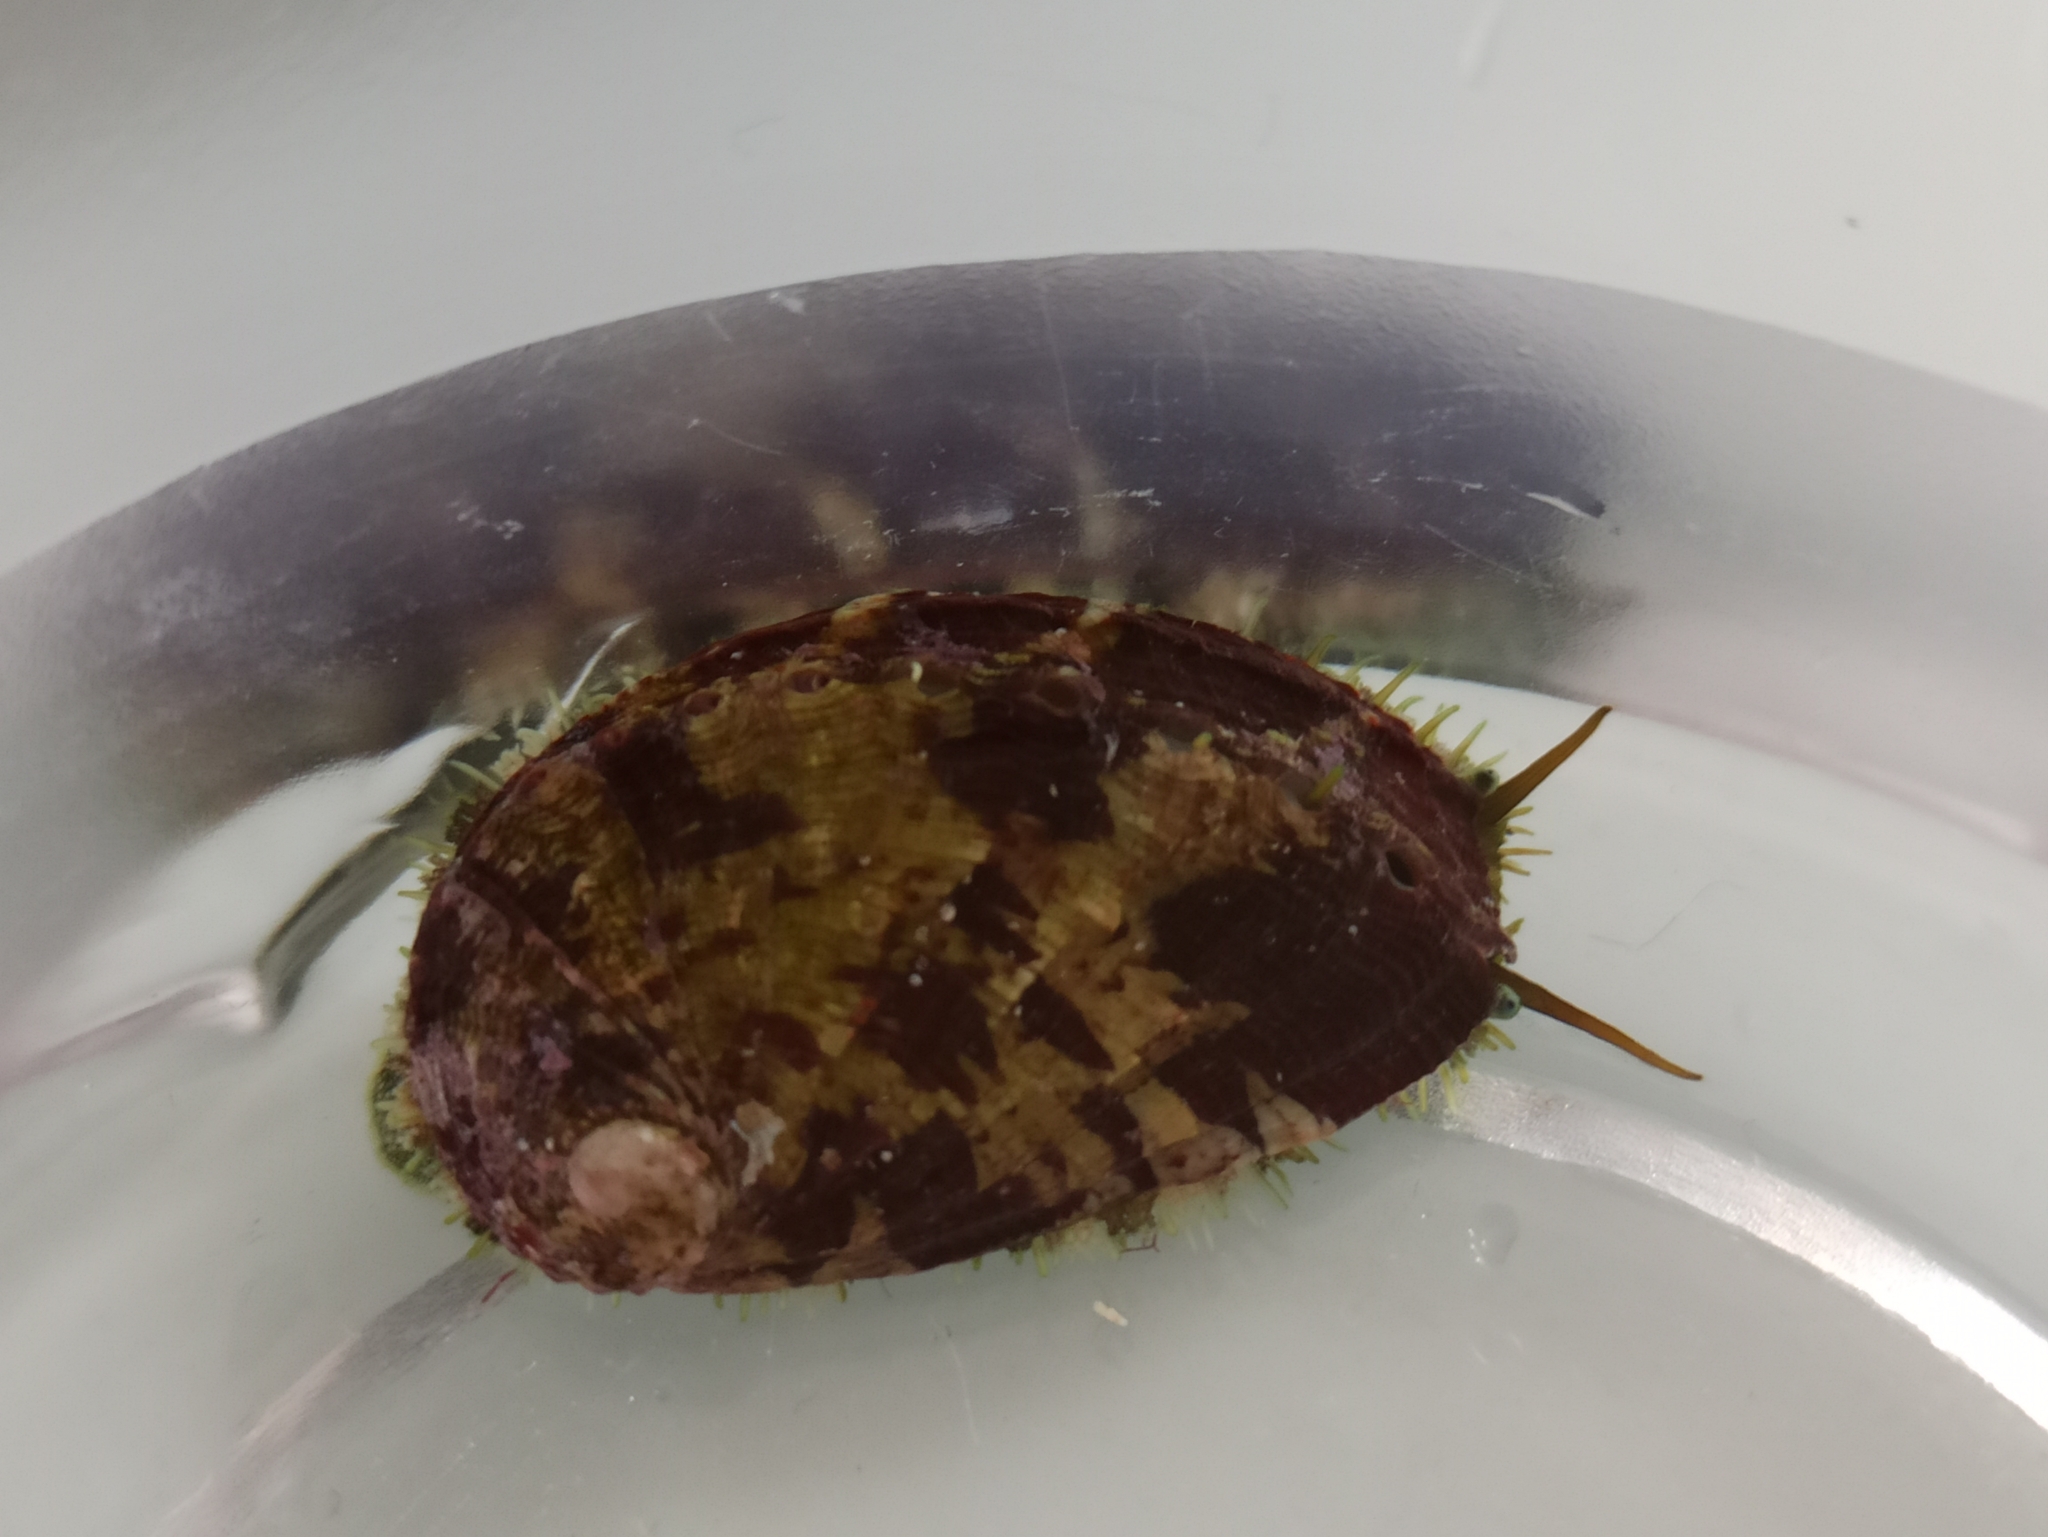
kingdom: Animalia
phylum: Mollusca
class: Gastropoda
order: Lepetellida
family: Haliotidae
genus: Haliotis
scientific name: Haliotis tuberculata
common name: Green ormer
